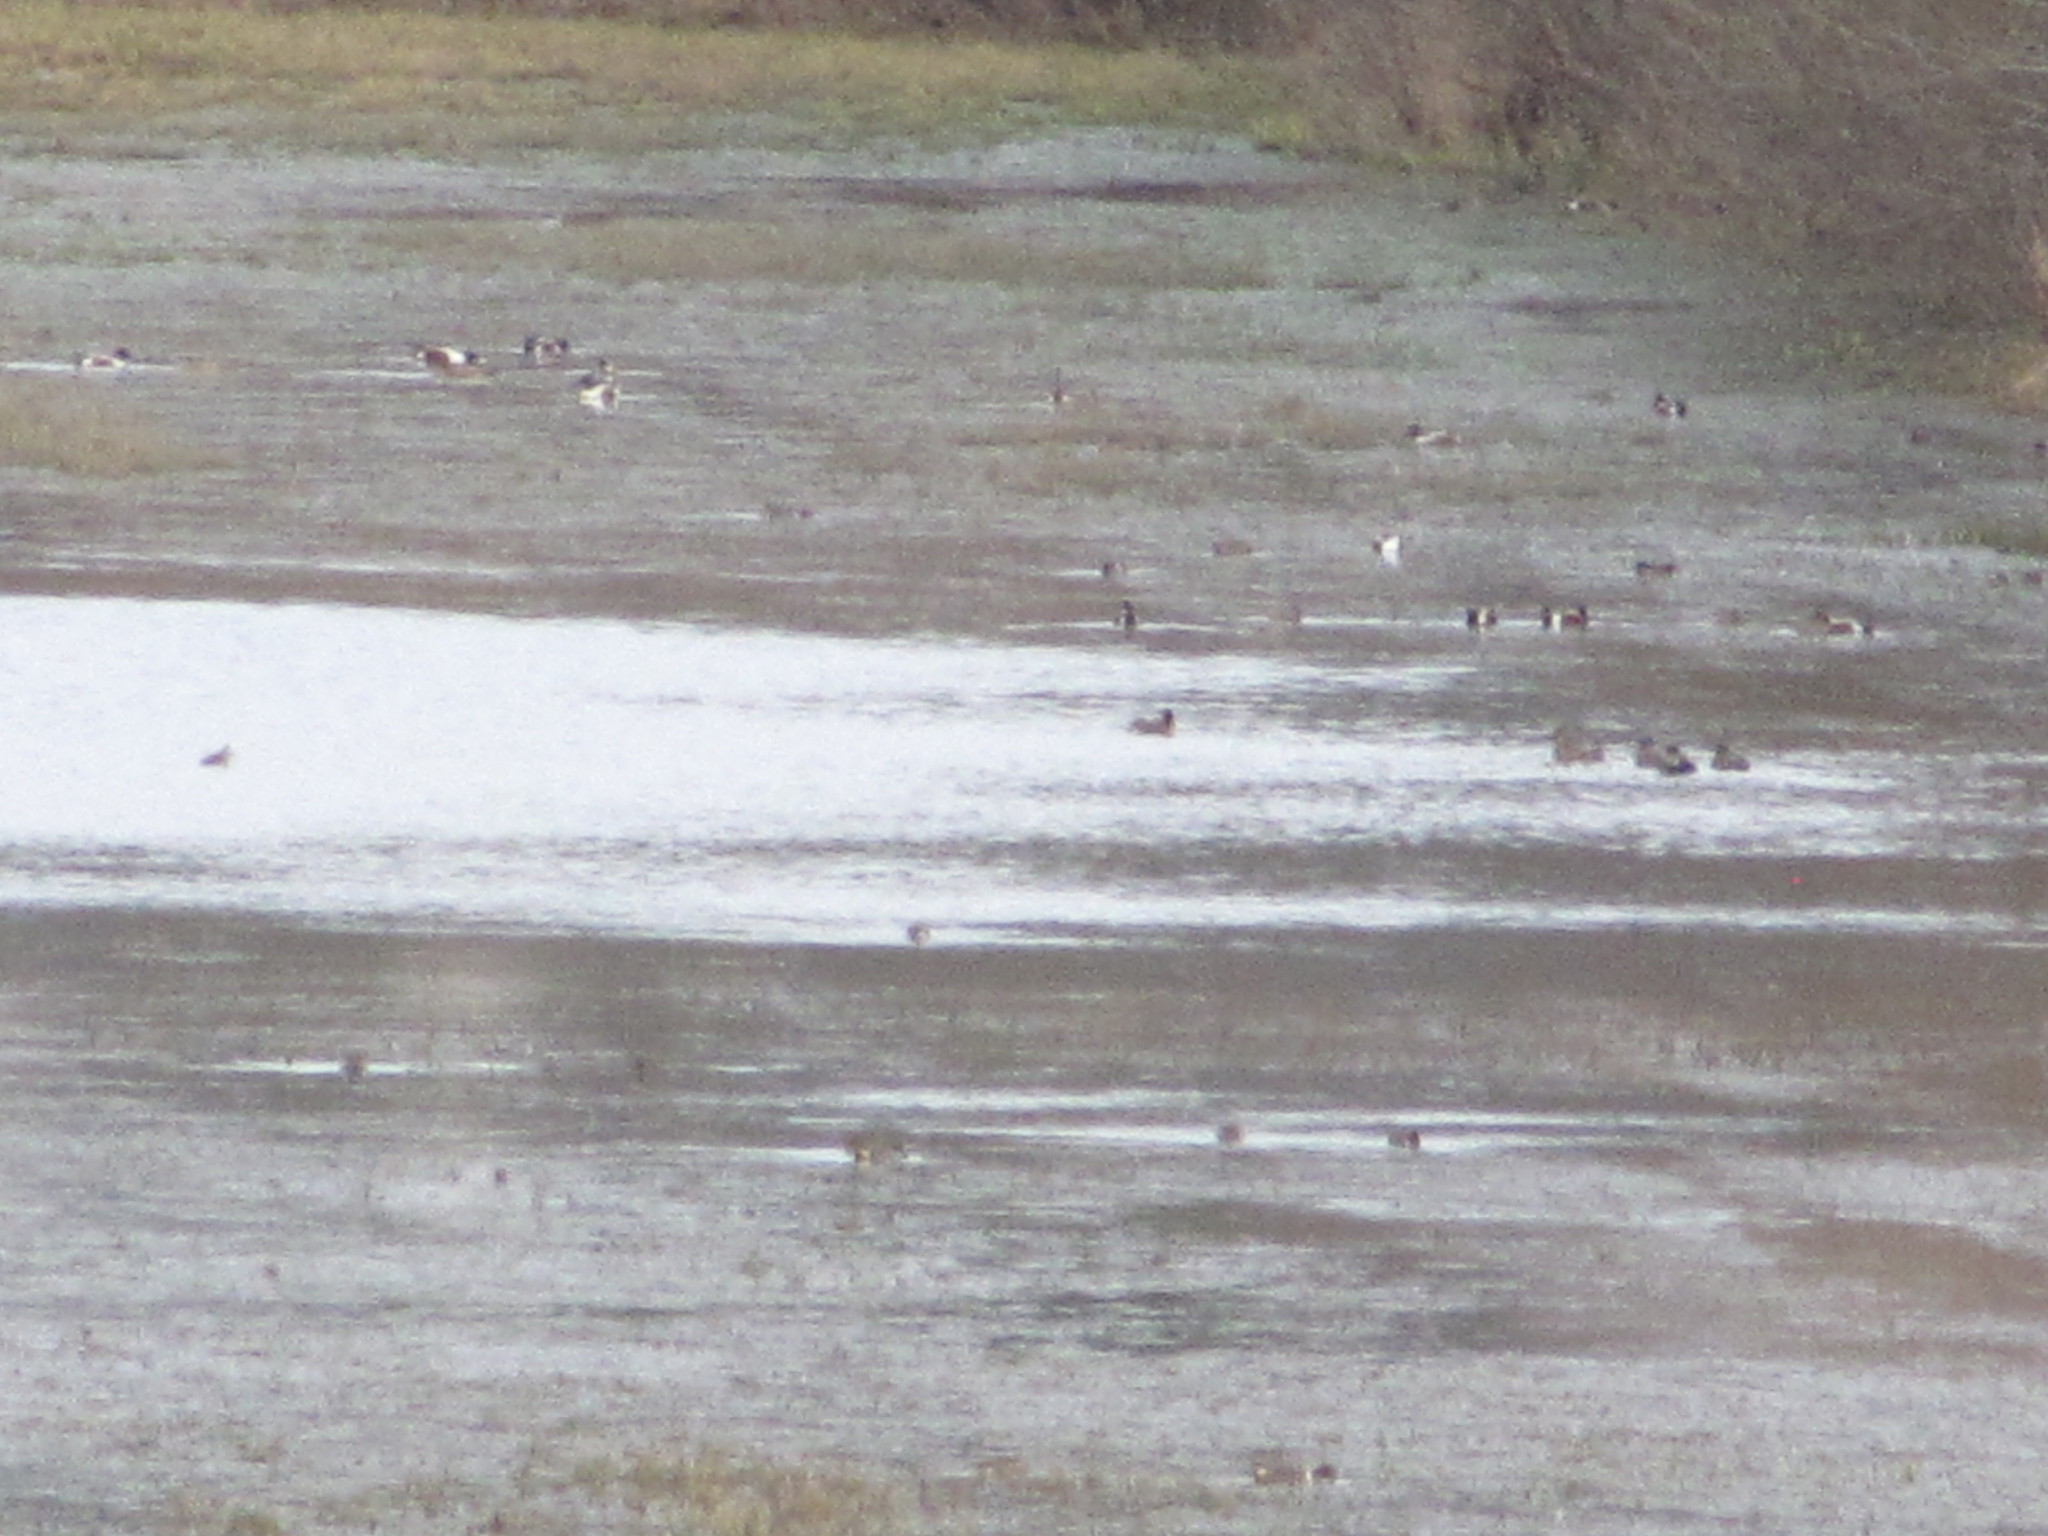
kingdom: Animalia
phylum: Chordata
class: Aves
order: Anseriformes
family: Anatidae
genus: Spatula
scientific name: Spatula clypeata
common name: Northern shoveler
